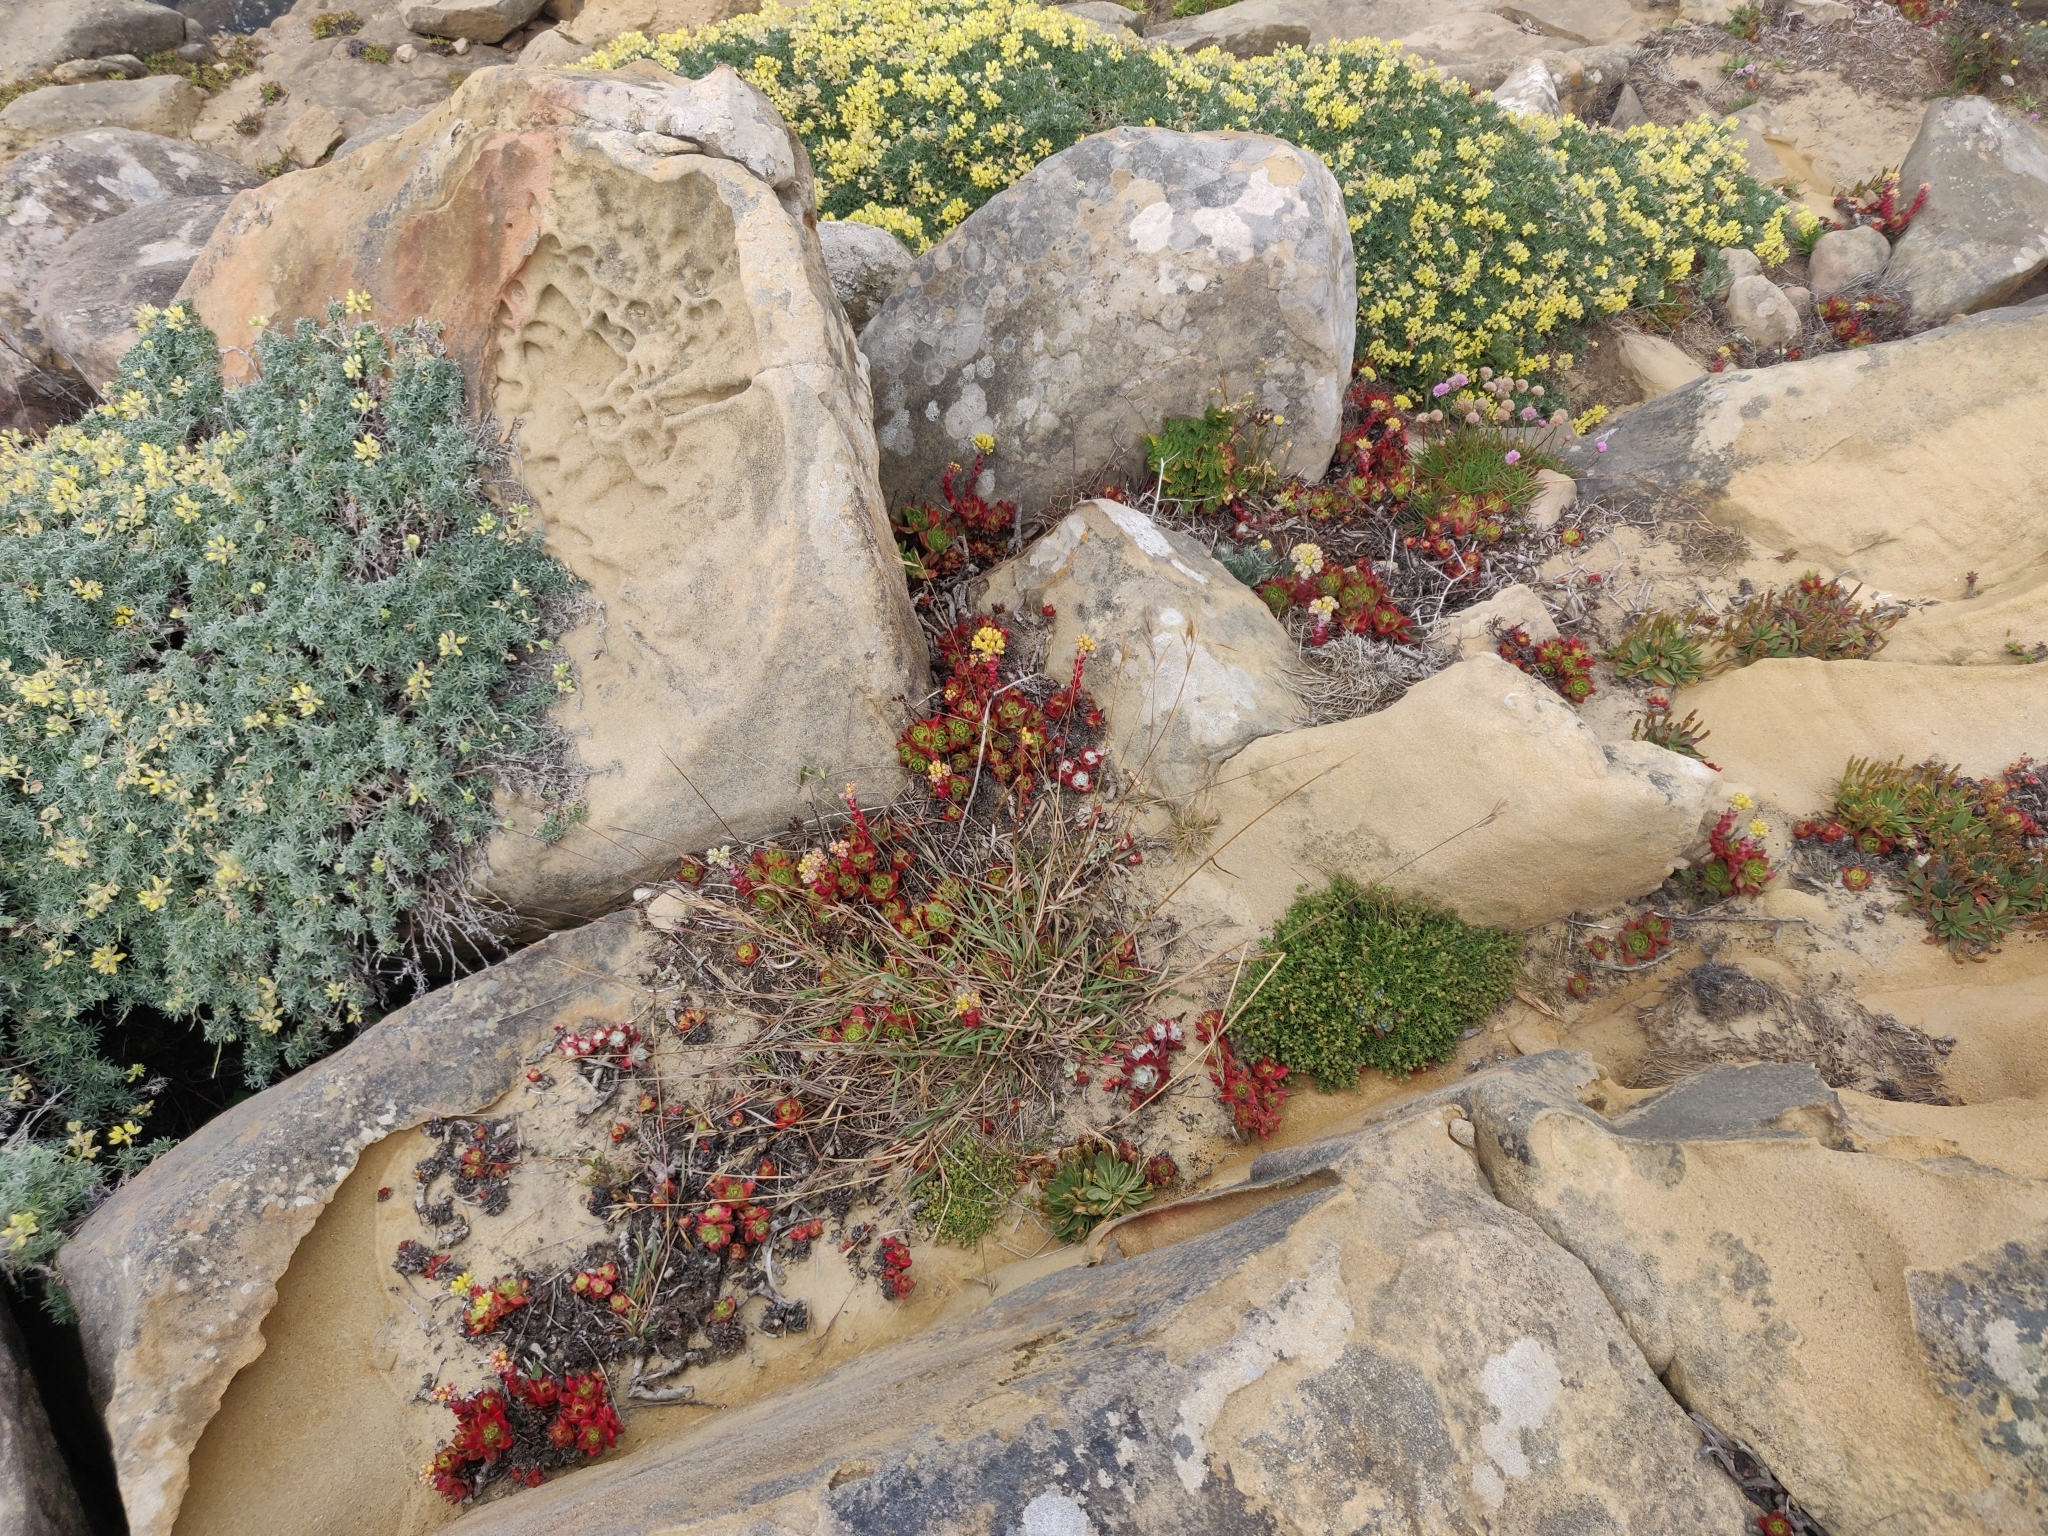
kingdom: Plantae
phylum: Tracheophyta
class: Magnoliopsida
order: Saxifragales
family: Crassulaceae
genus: Dudleya
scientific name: Dudleya farinosa
